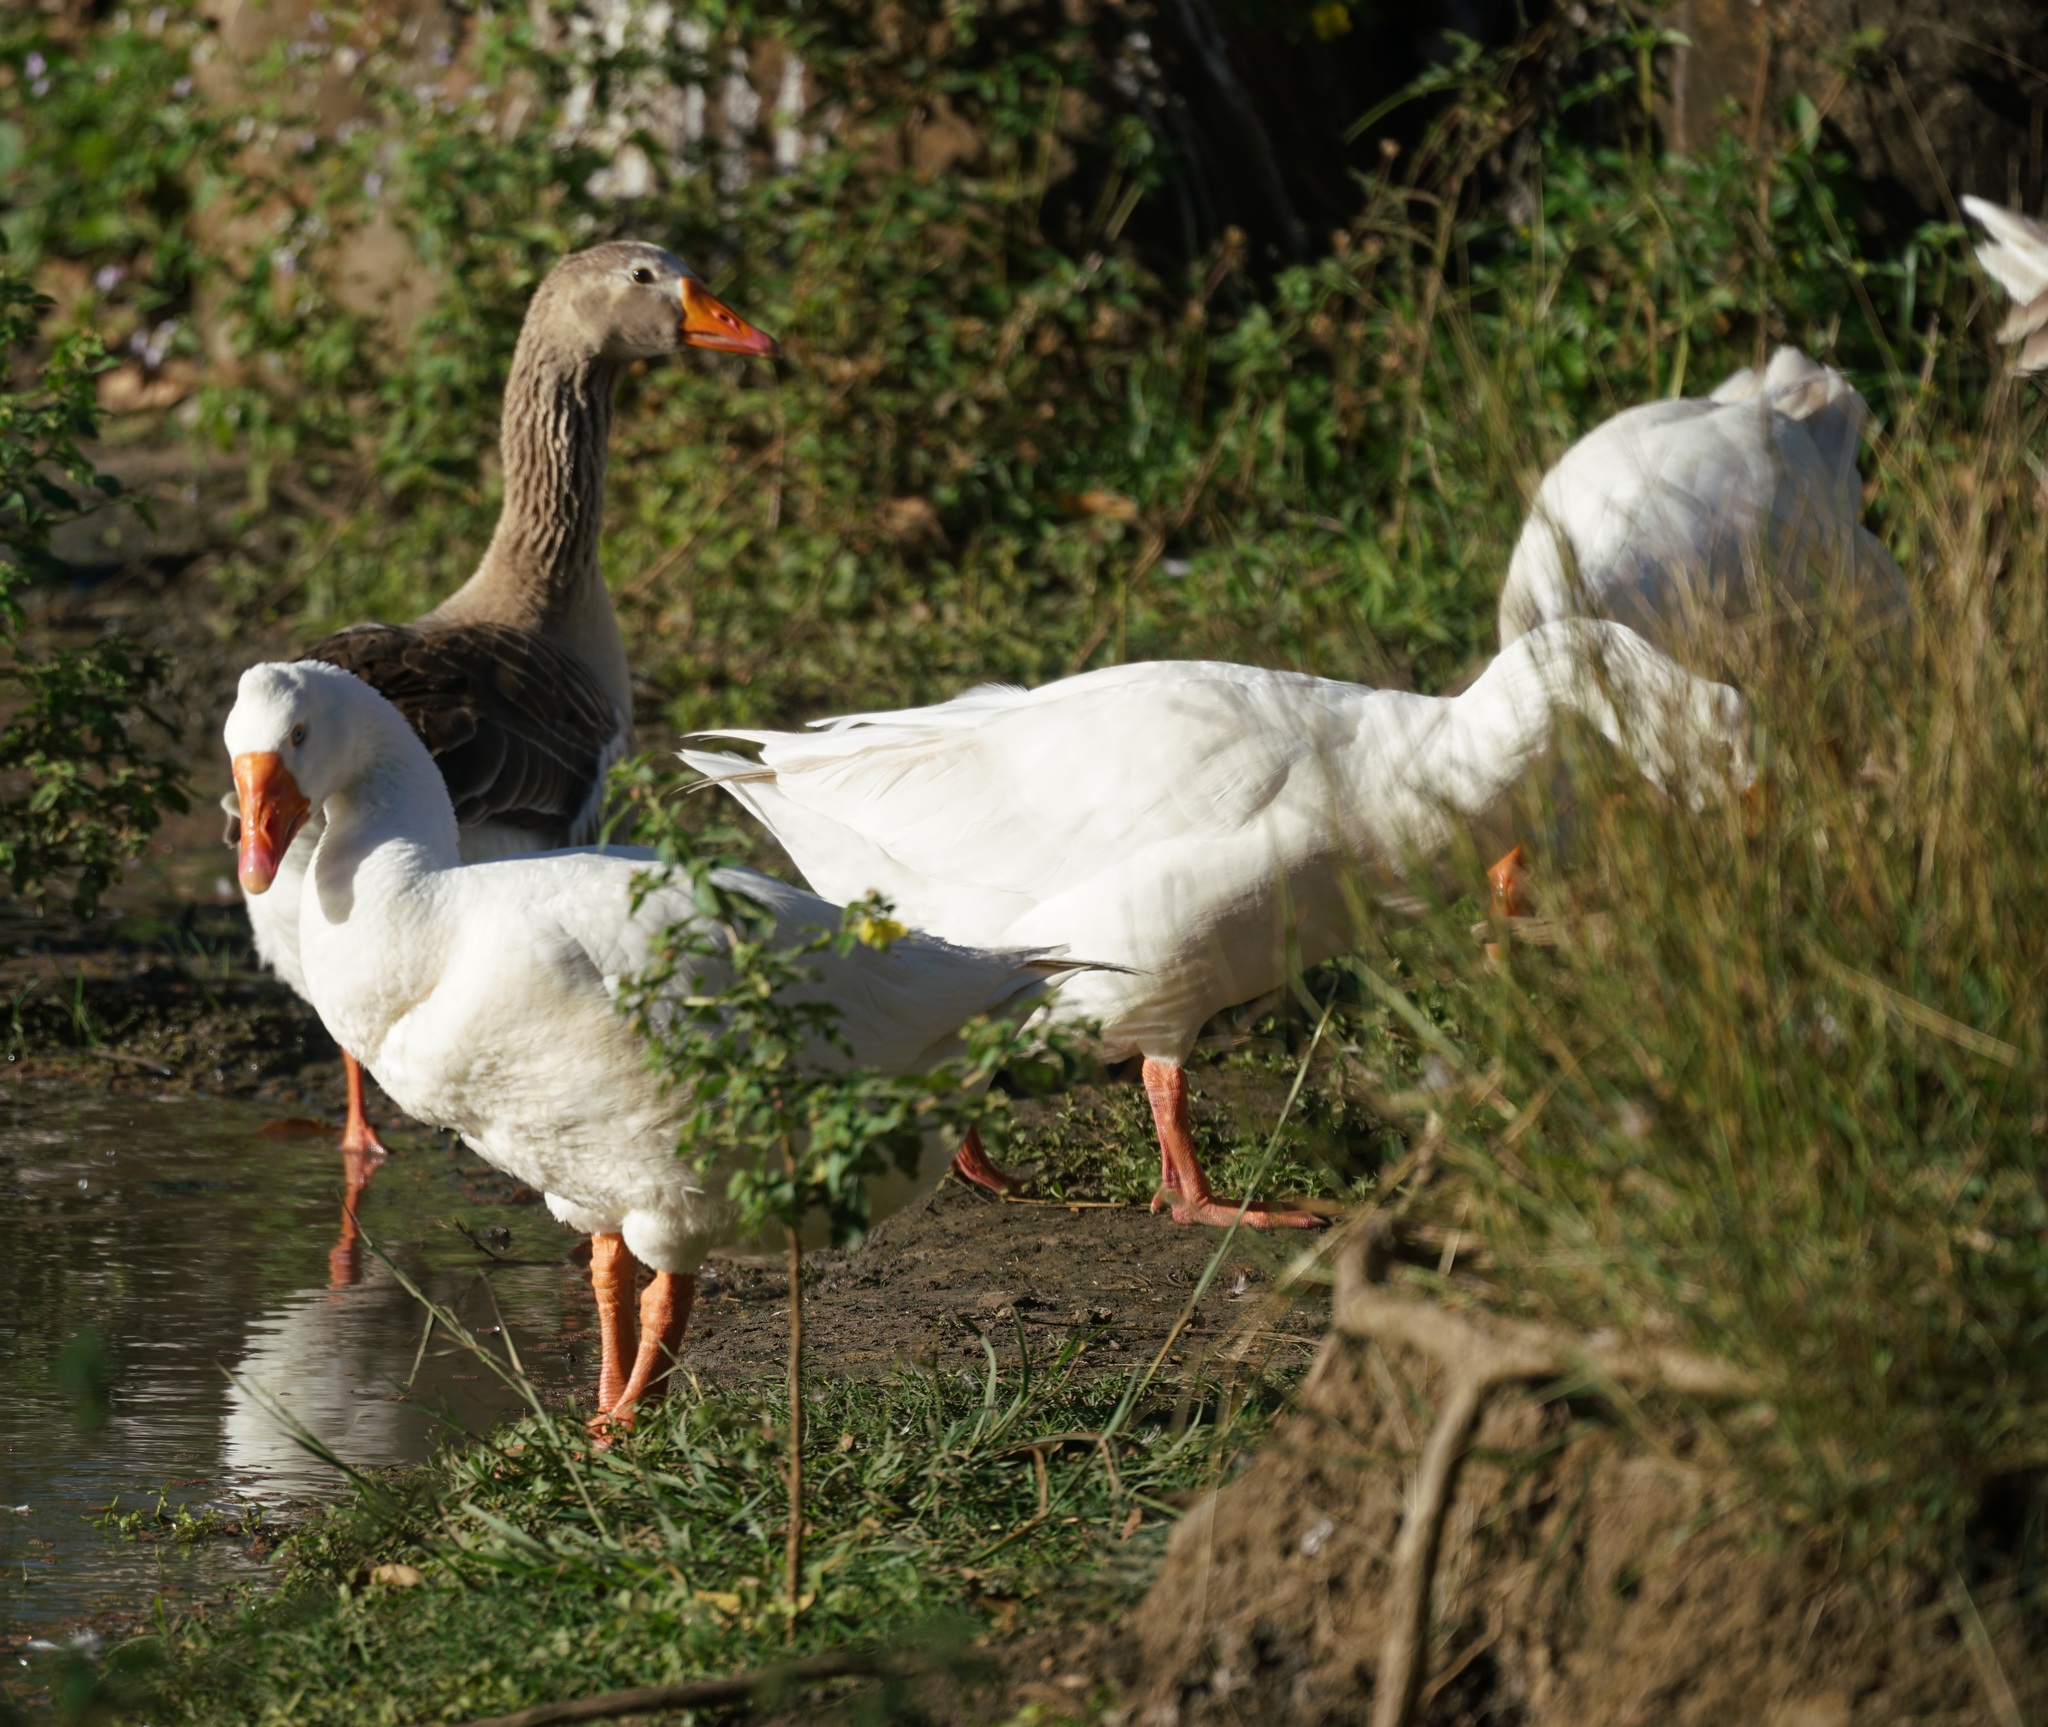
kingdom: Animalia
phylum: Chordata
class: Aves
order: Anseriformes
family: Anatidae
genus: Anser
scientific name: Anser anser
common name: Greylag goose
